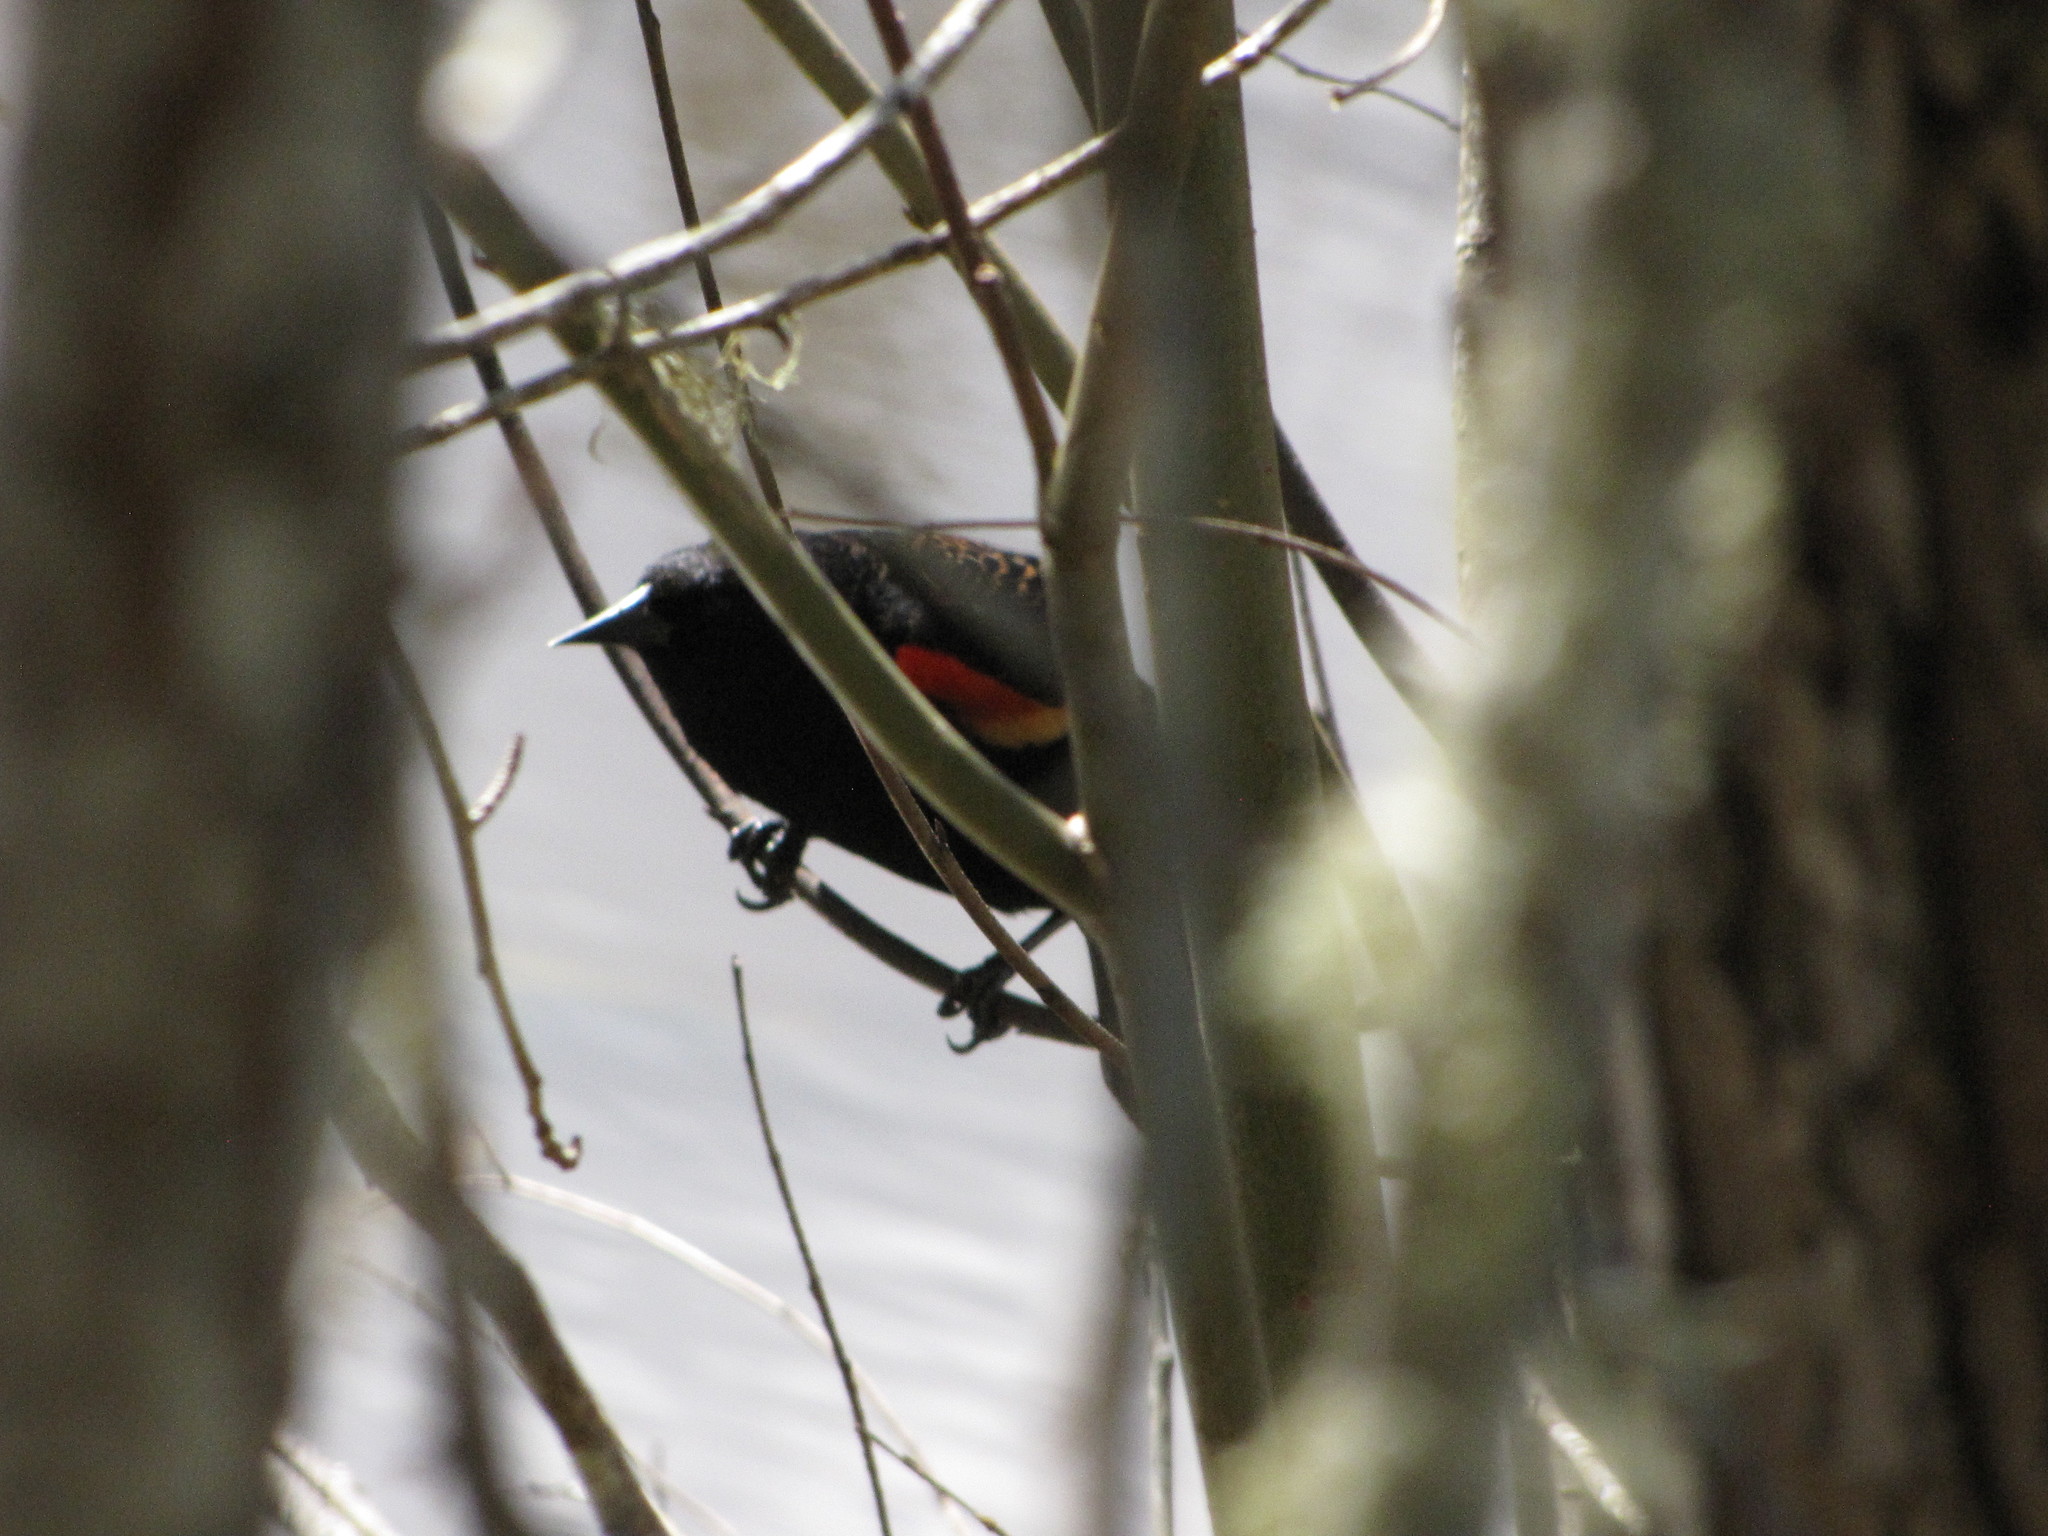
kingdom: Animalia
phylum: Chordata
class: Aves
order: Passeriformes
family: Icteridae
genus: Agelaius
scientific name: Agelaius phoeniceus
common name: Red-winged blackbird
